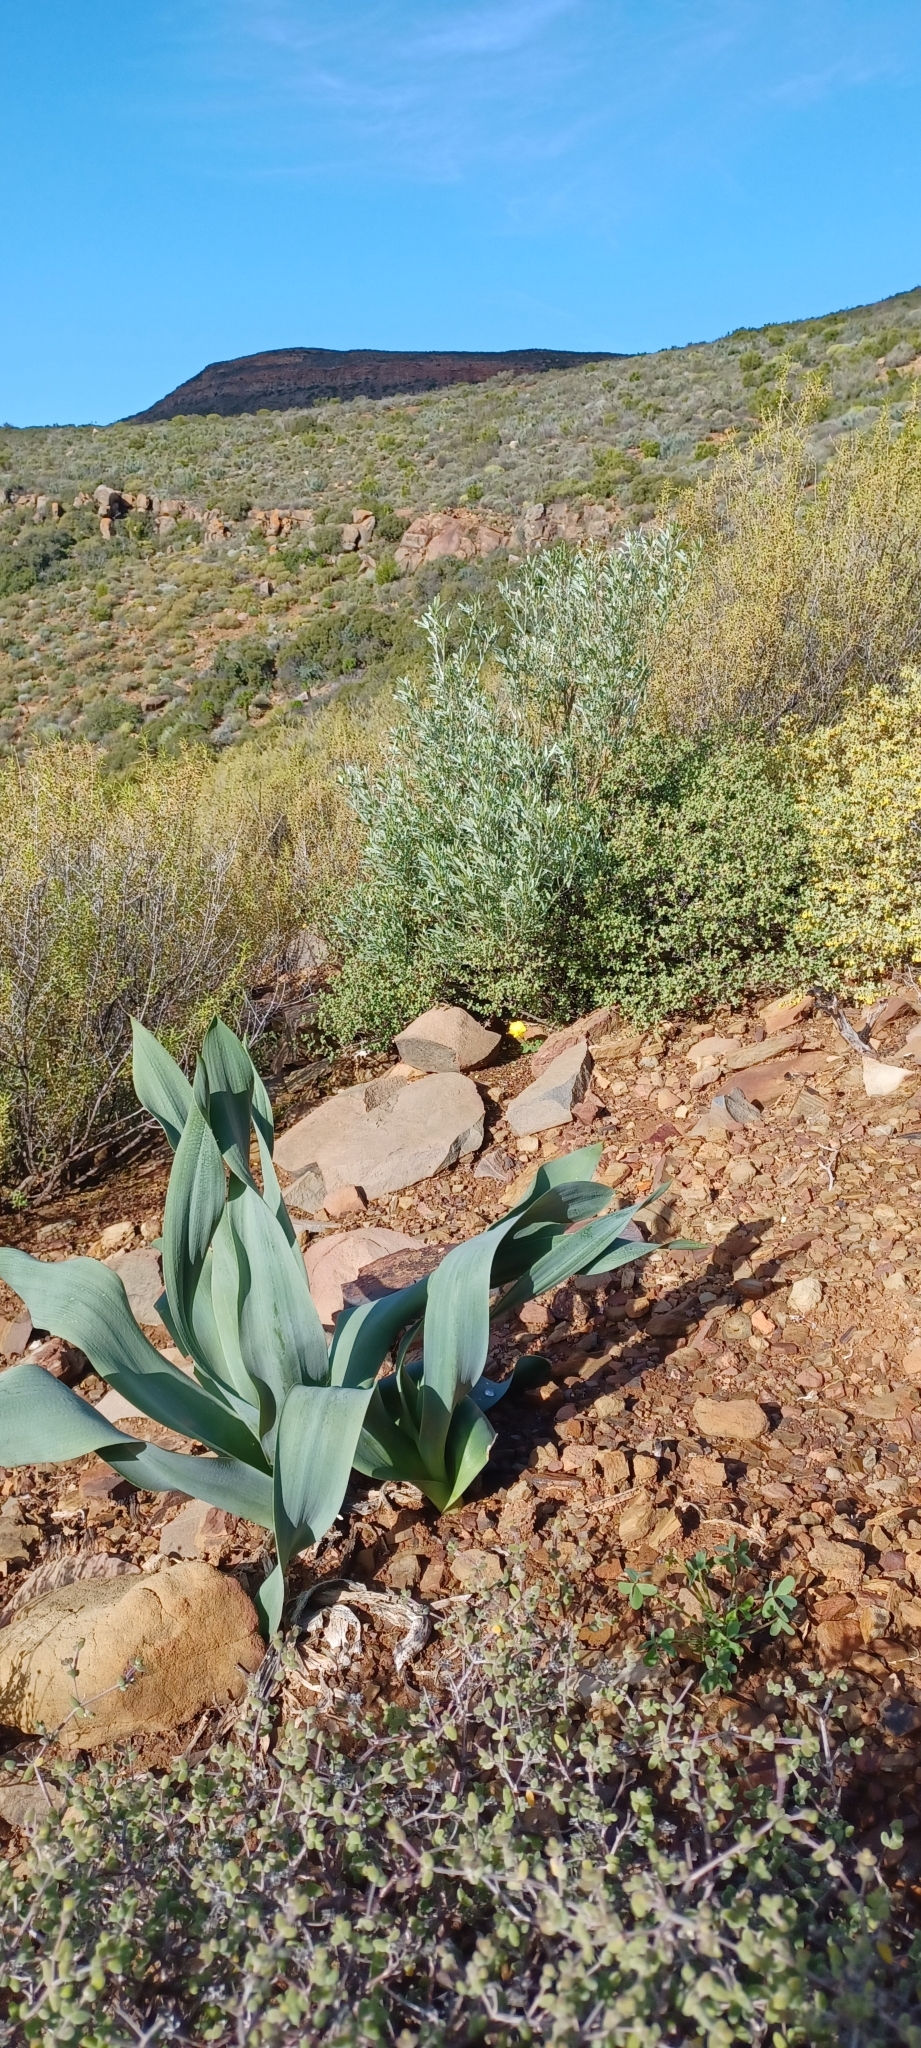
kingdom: Plantae
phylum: Tracheophyta
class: Liliopsida
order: Asparagales
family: Asparagaceae
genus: Drimia
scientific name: Drimia capensis
